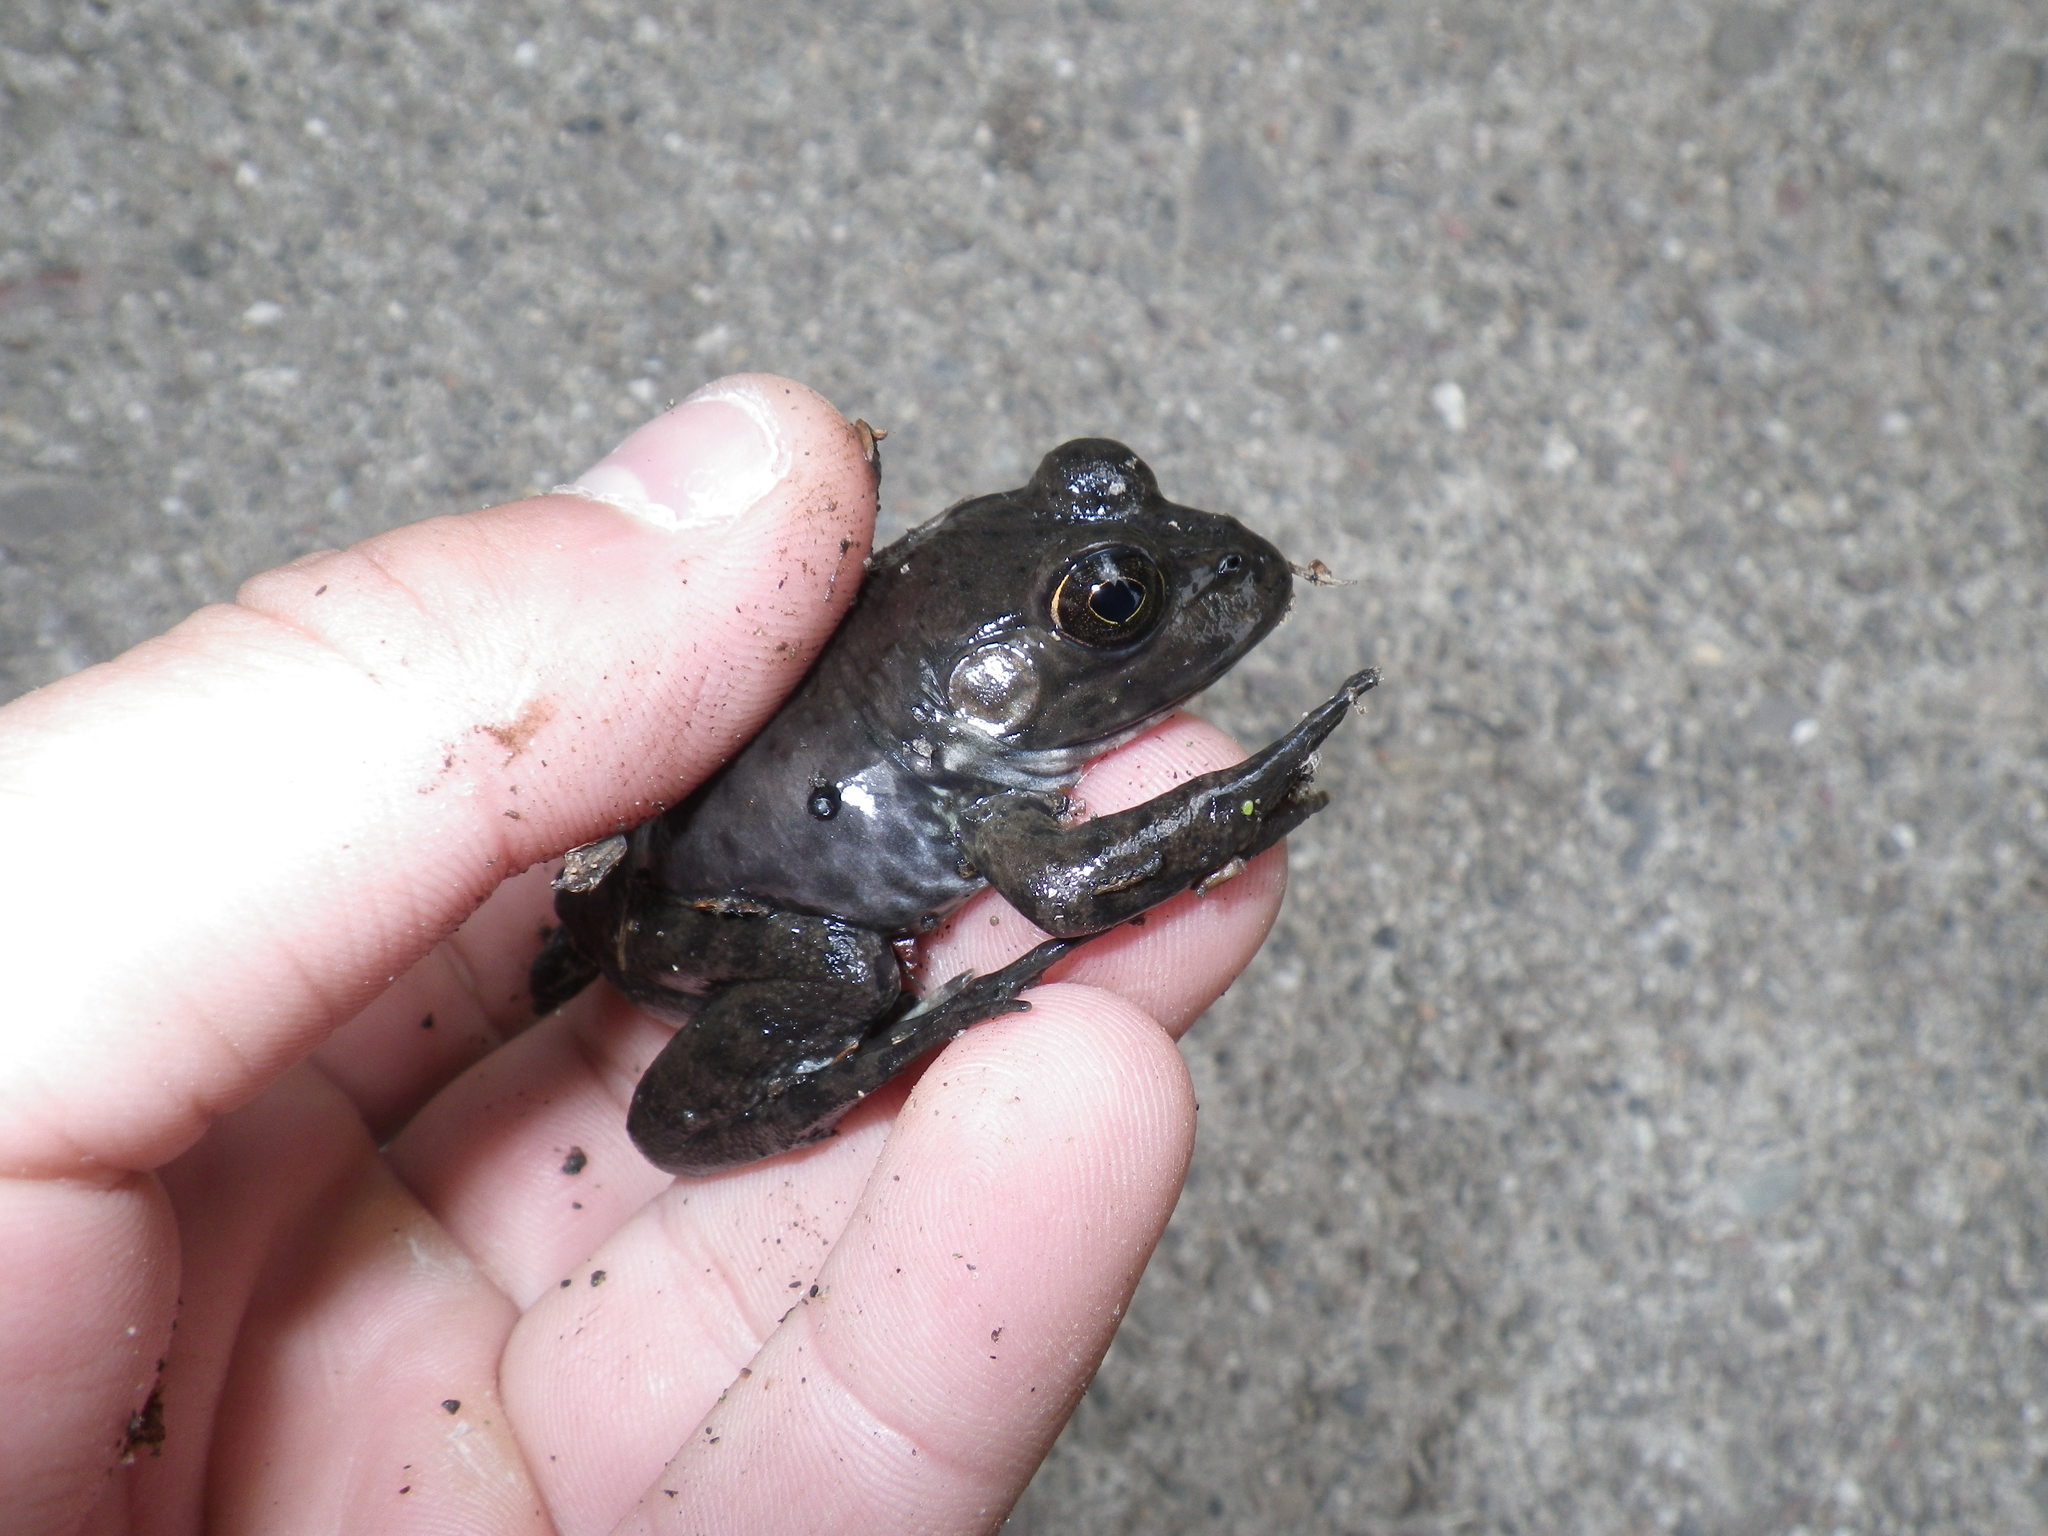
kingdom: Animalia
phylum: Chordata
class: Amphibia
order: Anura
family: Ranidae
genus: Lithobates
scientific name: Lithobates catesbeianus
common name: American bullfrog
